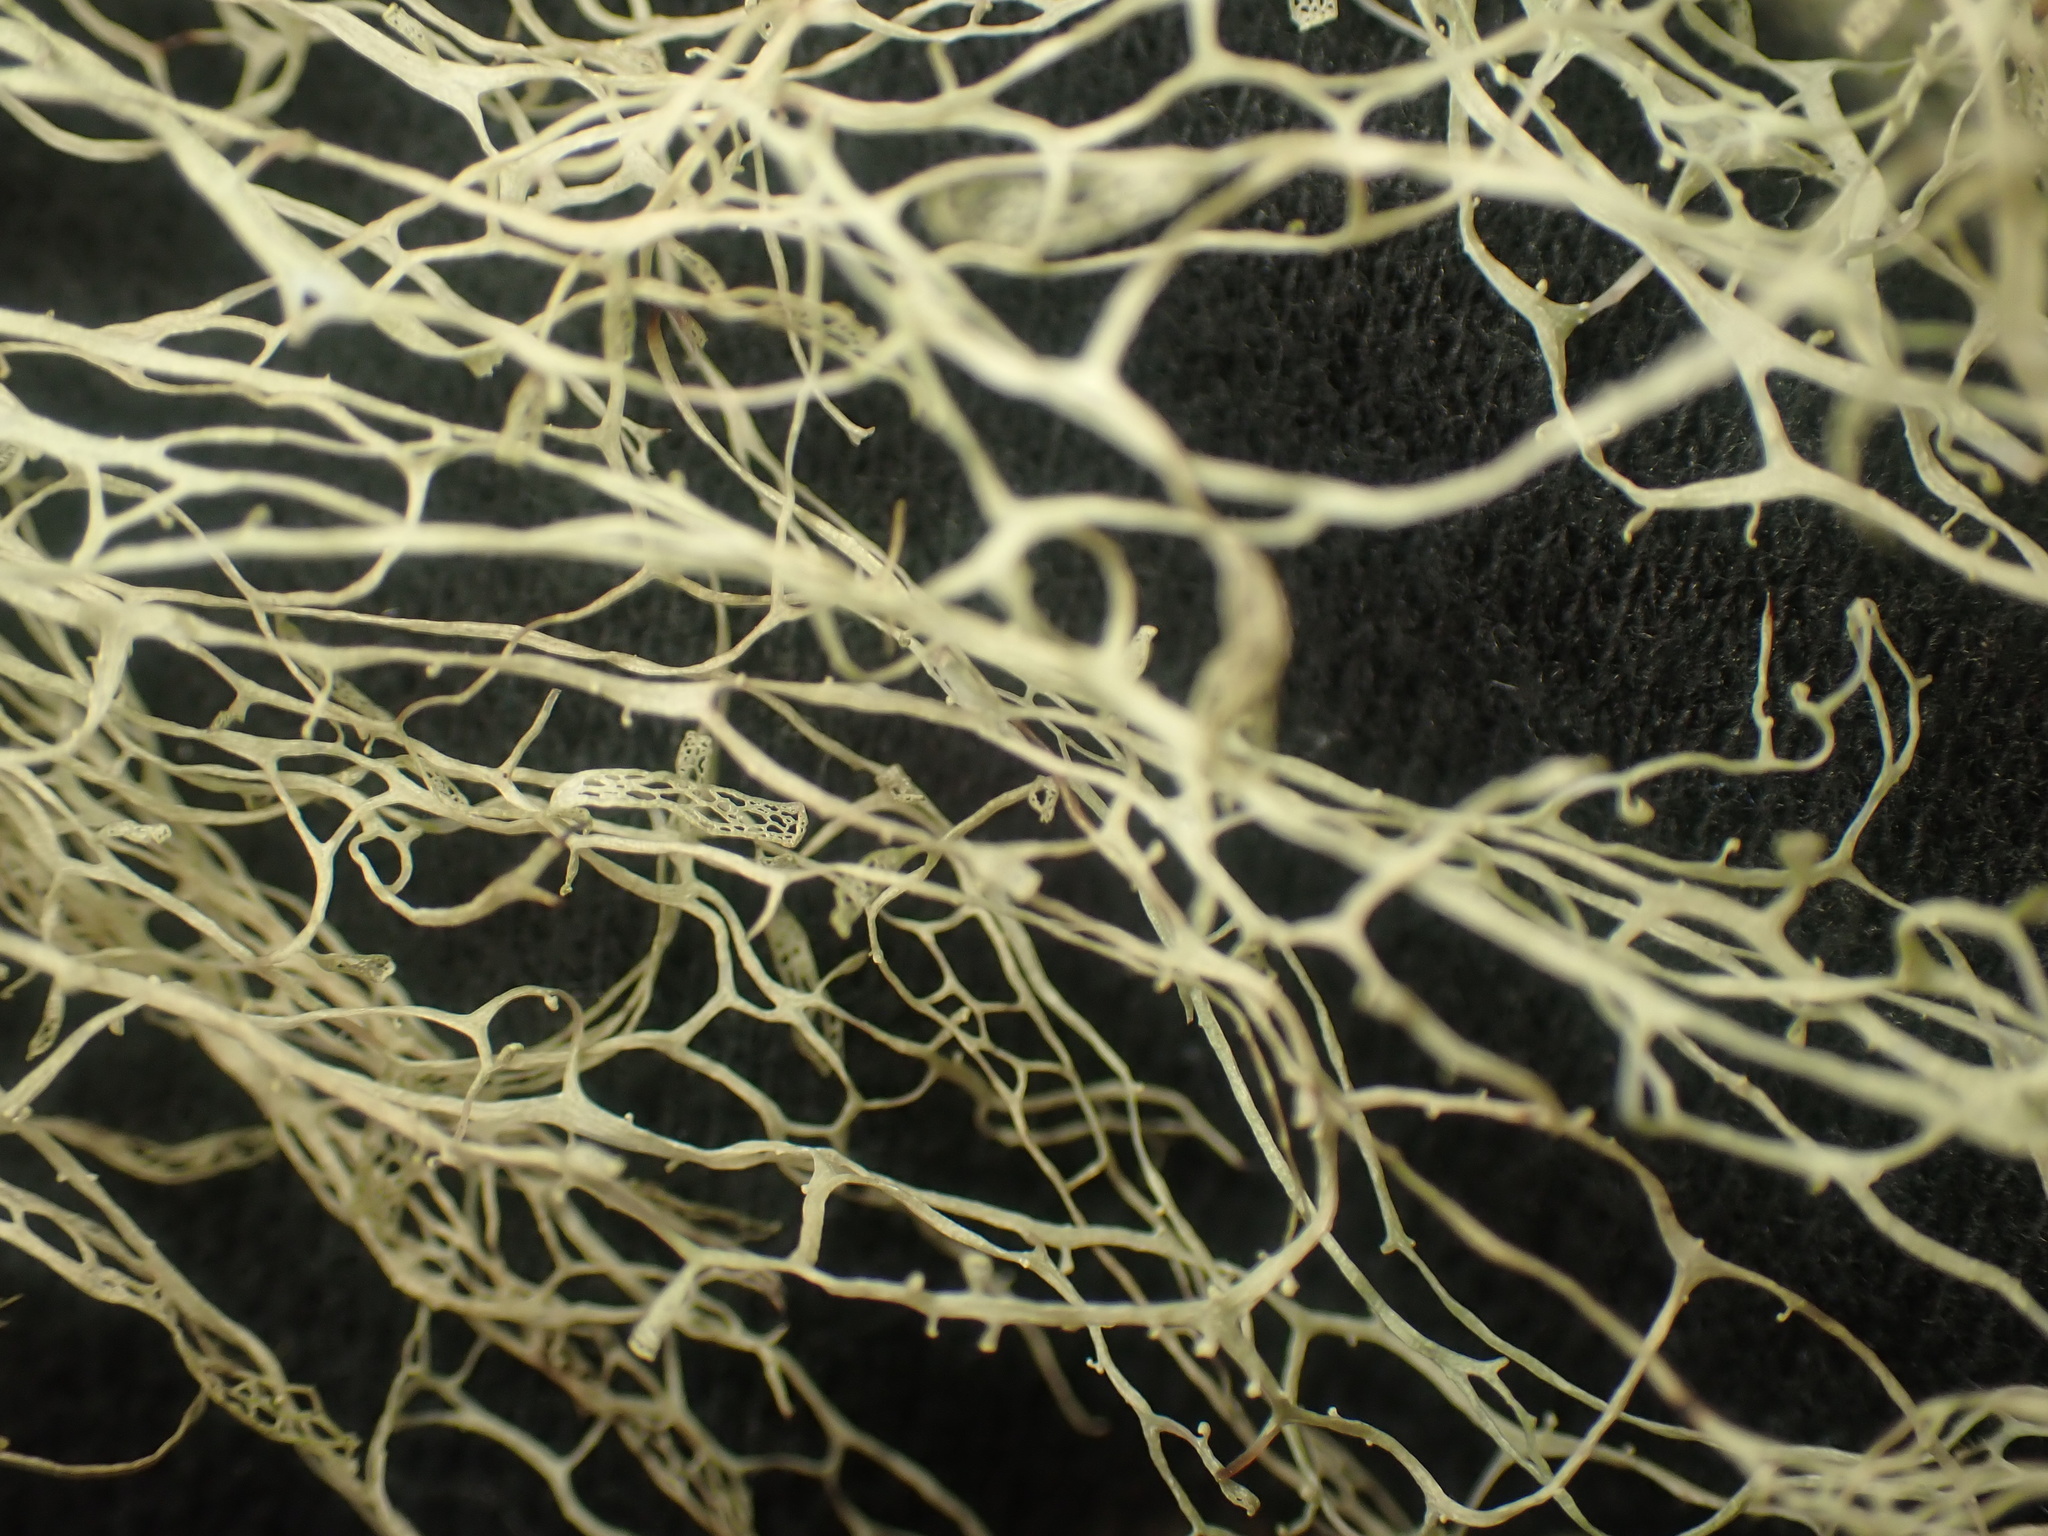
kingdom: Fungi
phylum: Ascomycota
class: Lecanoromycetes
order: Lecanorales
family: Ramalinaceae
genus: Ramalina
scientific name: Ramalina menziesii
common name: Lace lichen
